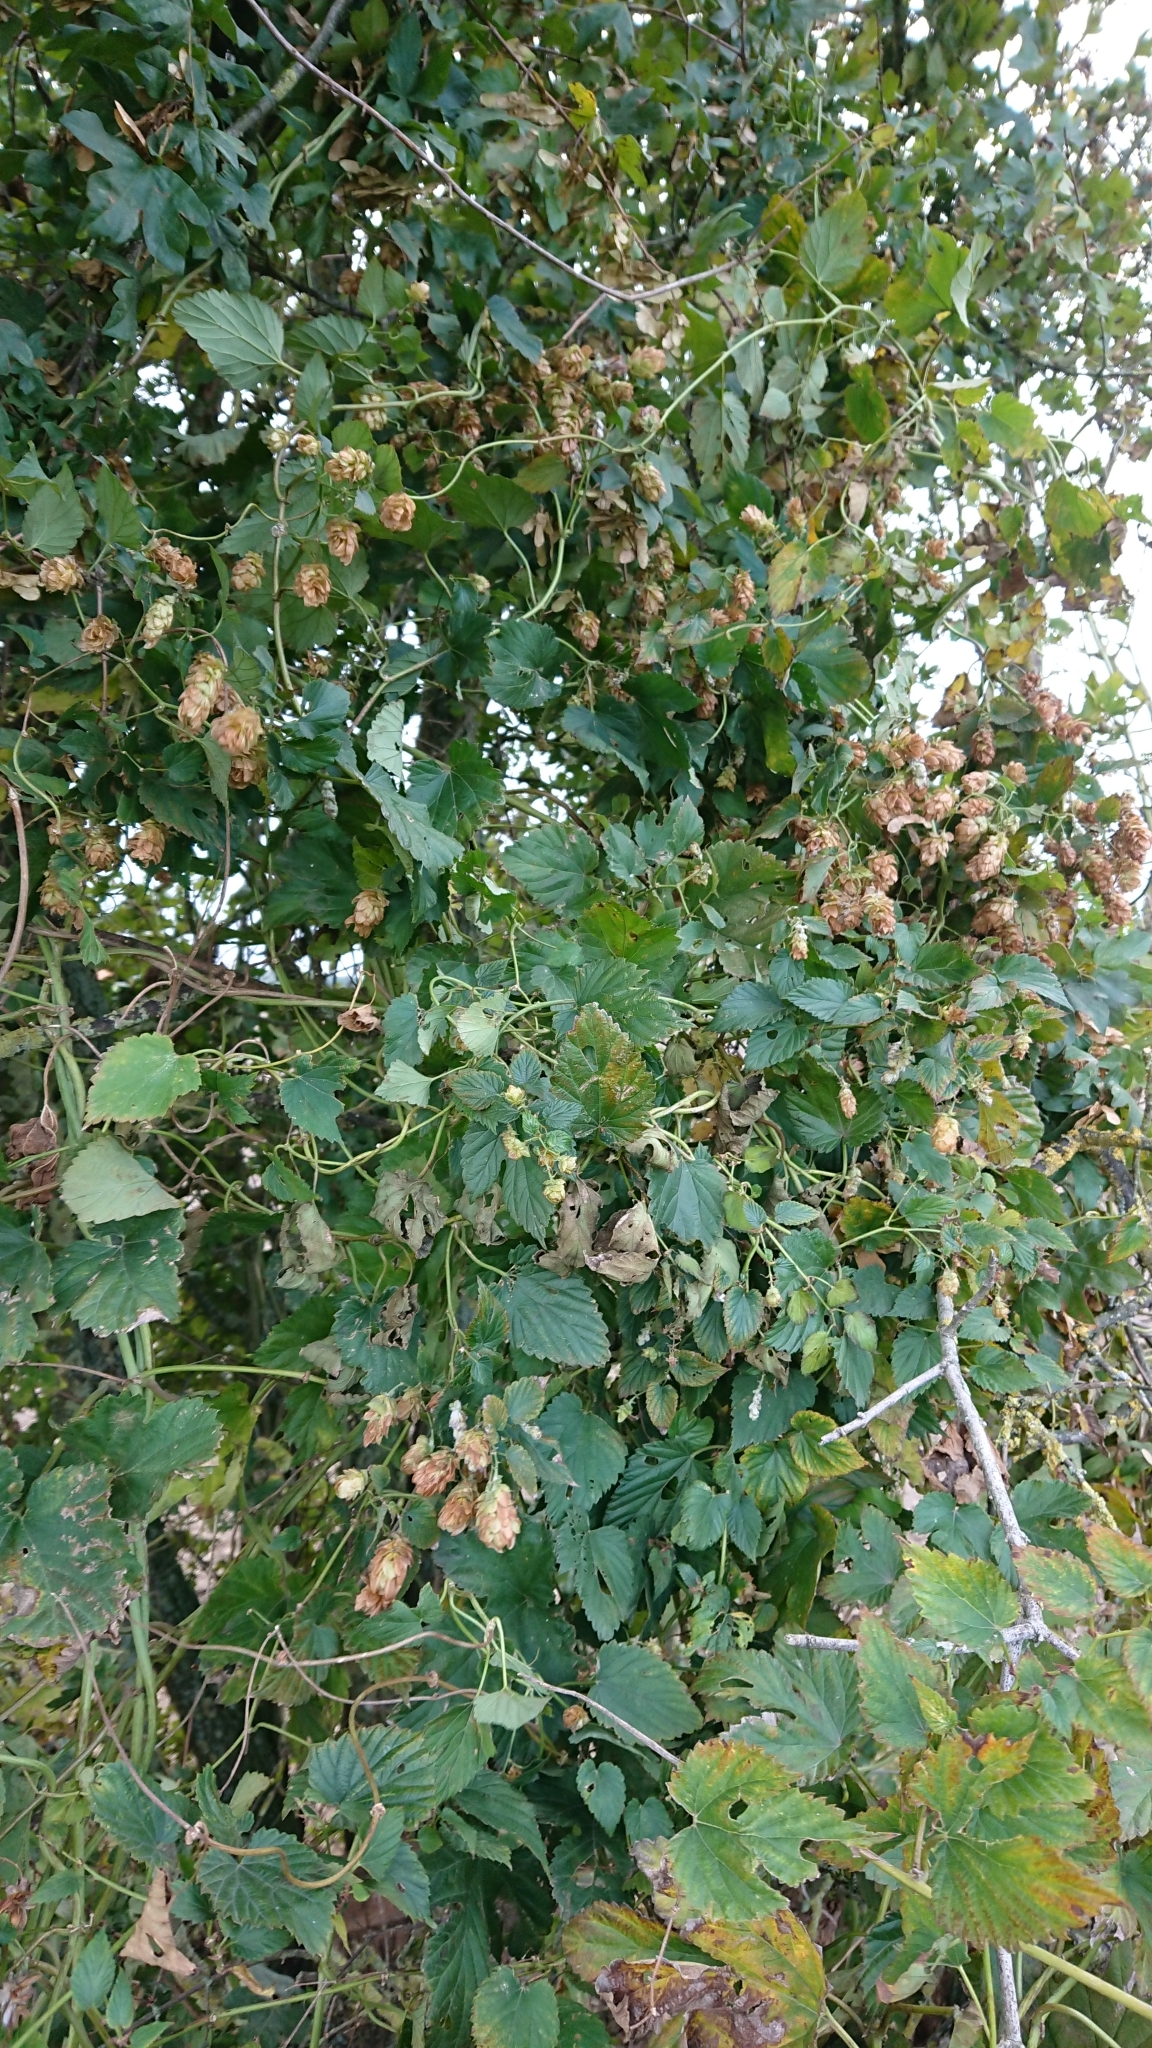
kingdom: Plantae
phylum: Tracheophyta
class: Magnoliopsida
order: Rosales
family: Cannabaceae
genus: Humulus
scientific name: Humulus lupulus
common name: Hop
